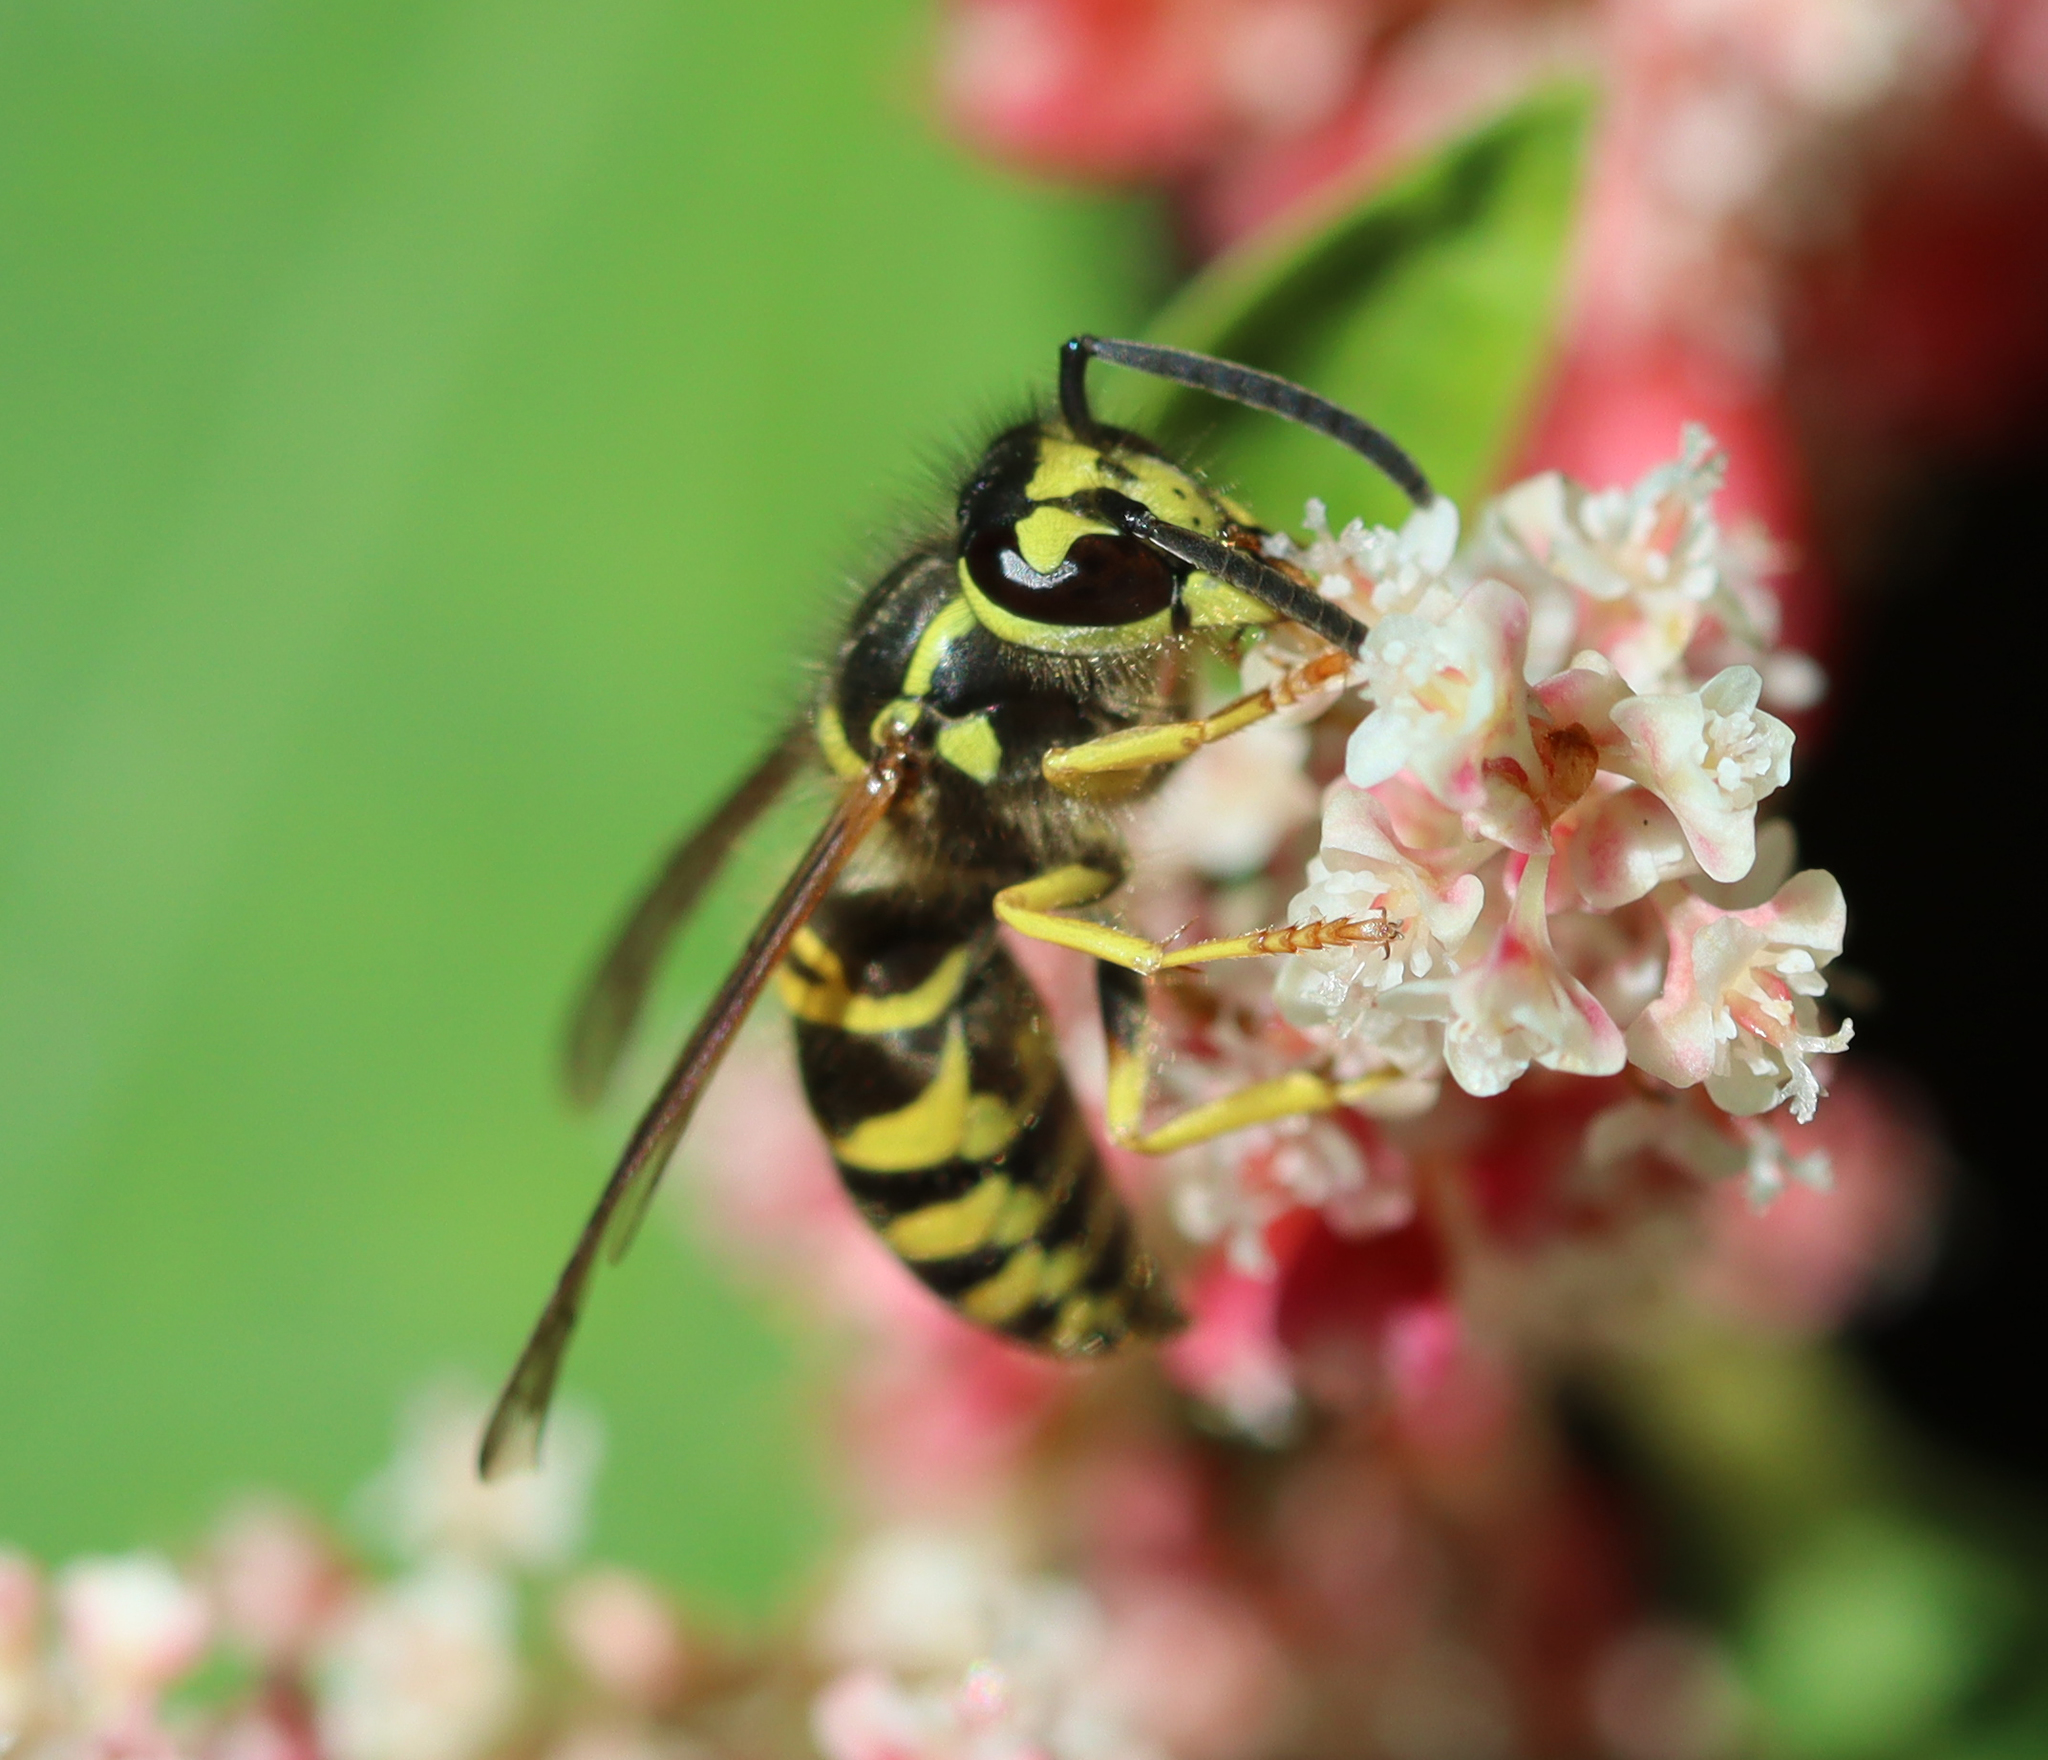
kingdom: Animalia
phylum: Arthropoda
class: Insecta
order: Hymenoptera
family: Vespidae
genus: Vespula
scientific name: Vespula maculifrons
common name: Eastern yellowjacket
